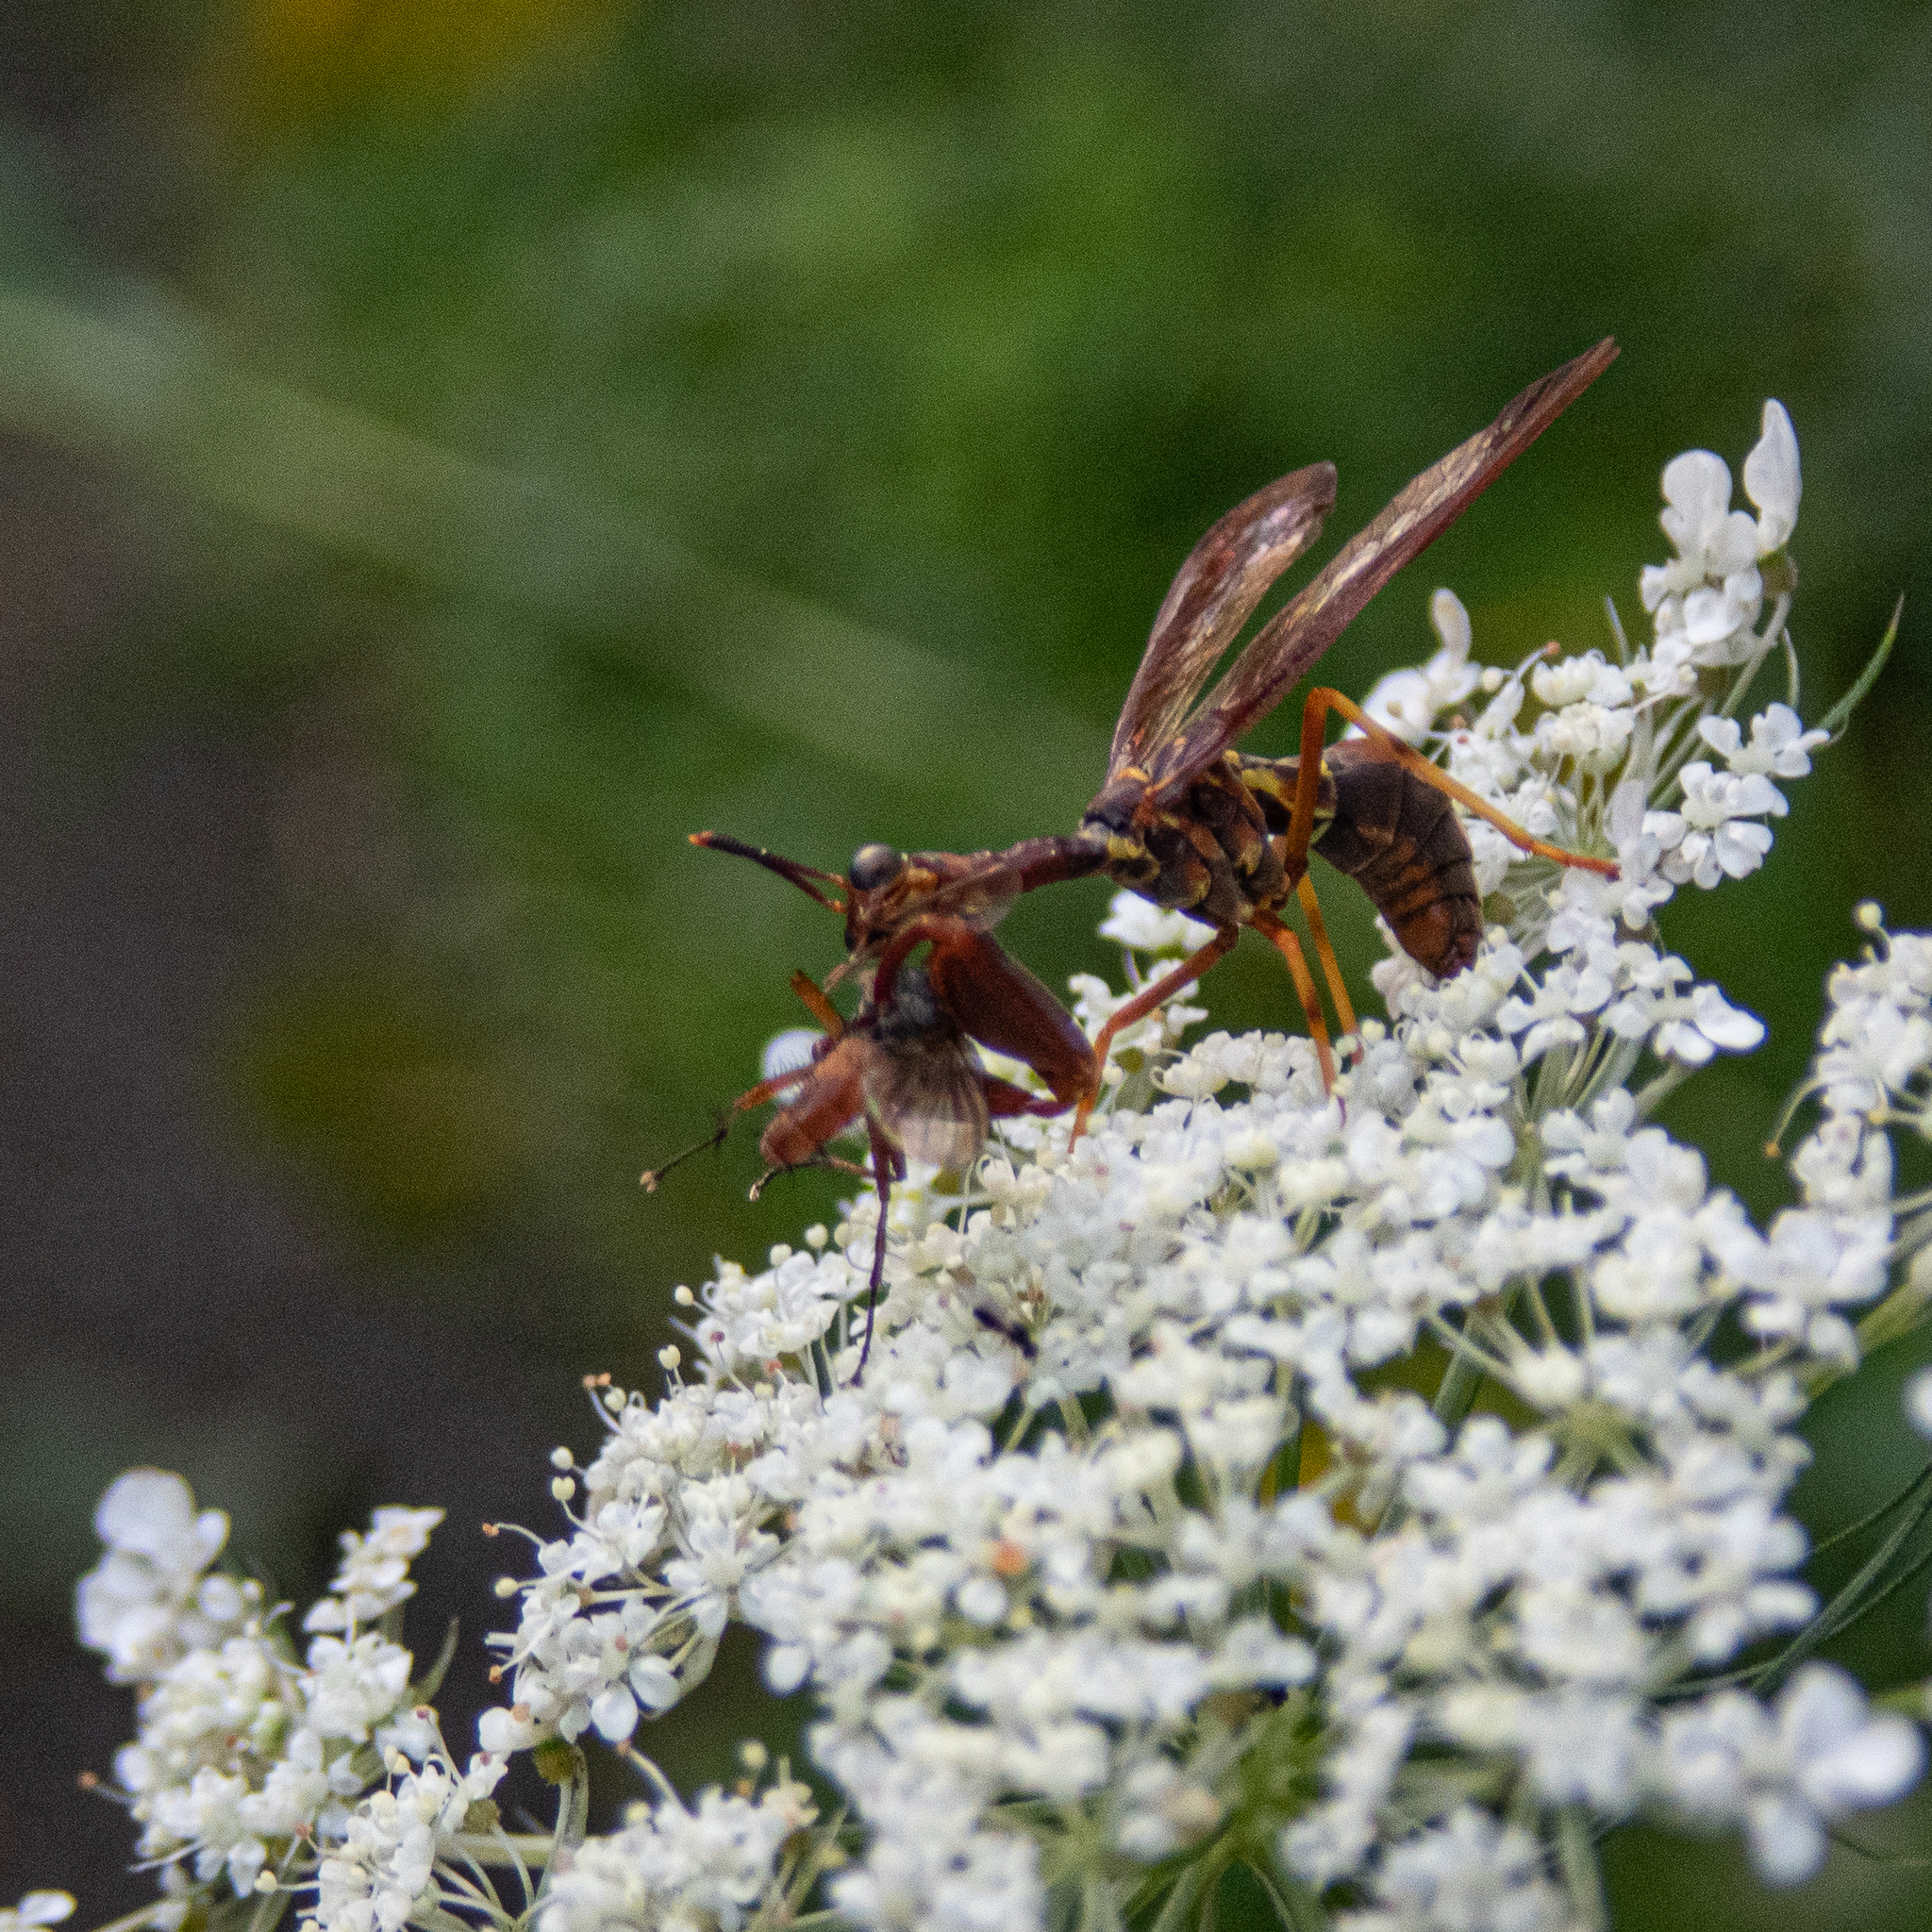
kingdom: Animalia
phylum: Arthropoda
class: Insecta
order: Neuroptera
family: Mantispidae
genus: Climaciella
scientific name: Climaciella brunnea
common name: Brown wasp mantidfly
